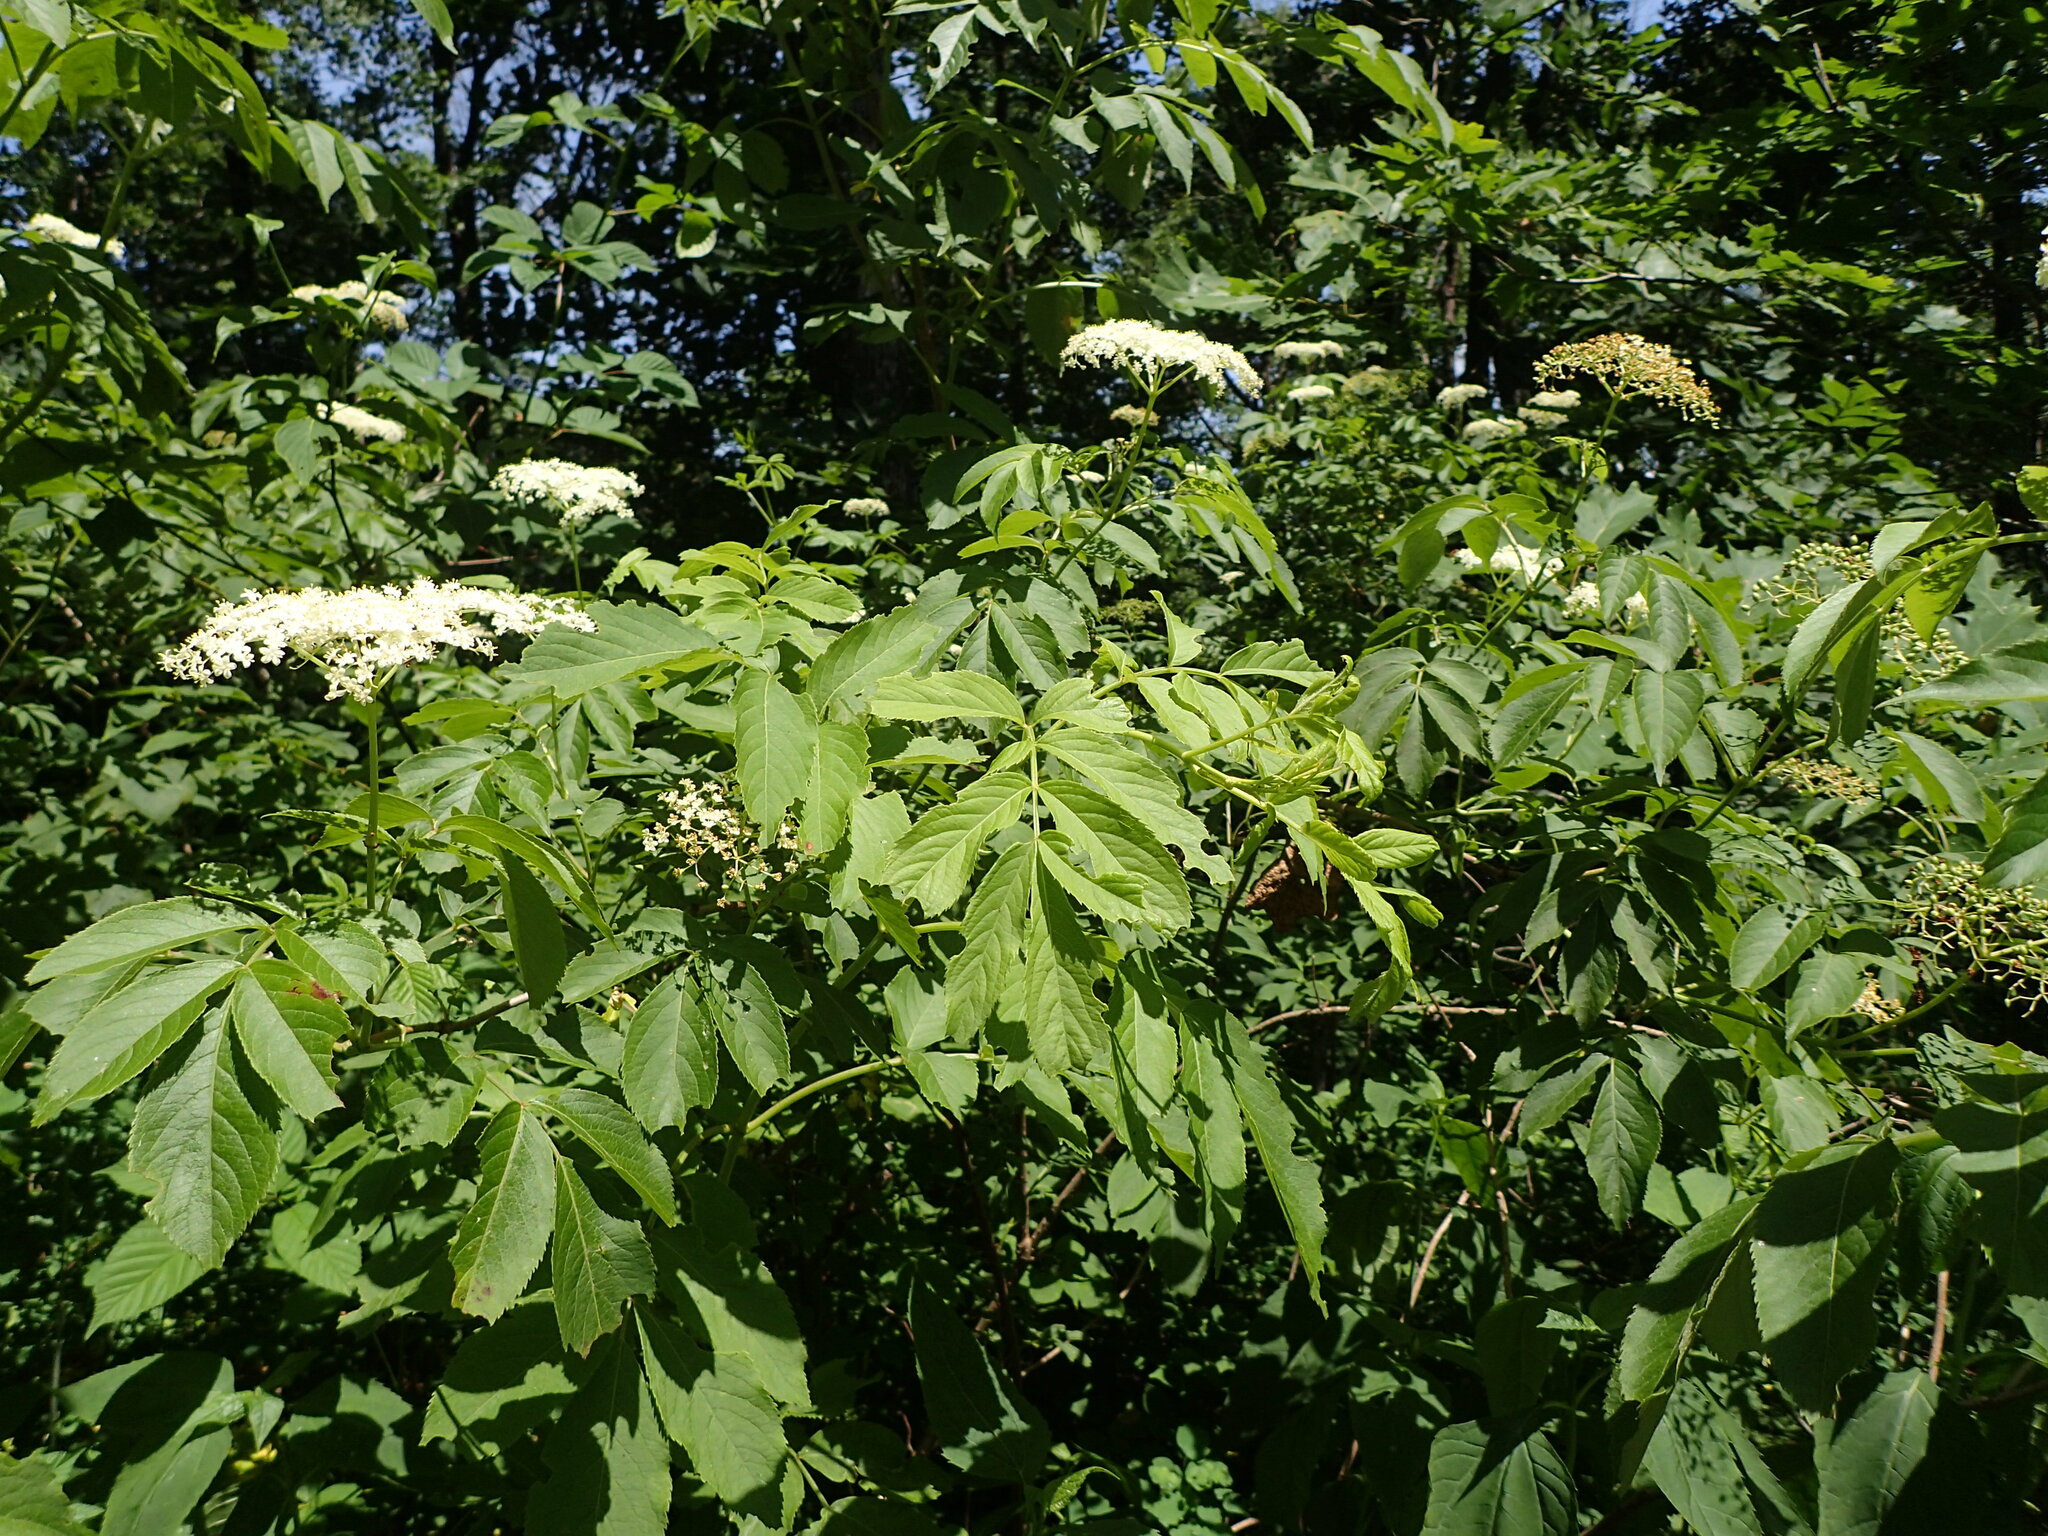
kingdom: Plantae
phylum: Tracheophyta
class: Magnoliopsida
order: Dipsacales
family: Viburnaceae
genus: Sambucus
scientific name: Sambucus canadensis
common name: American elder
